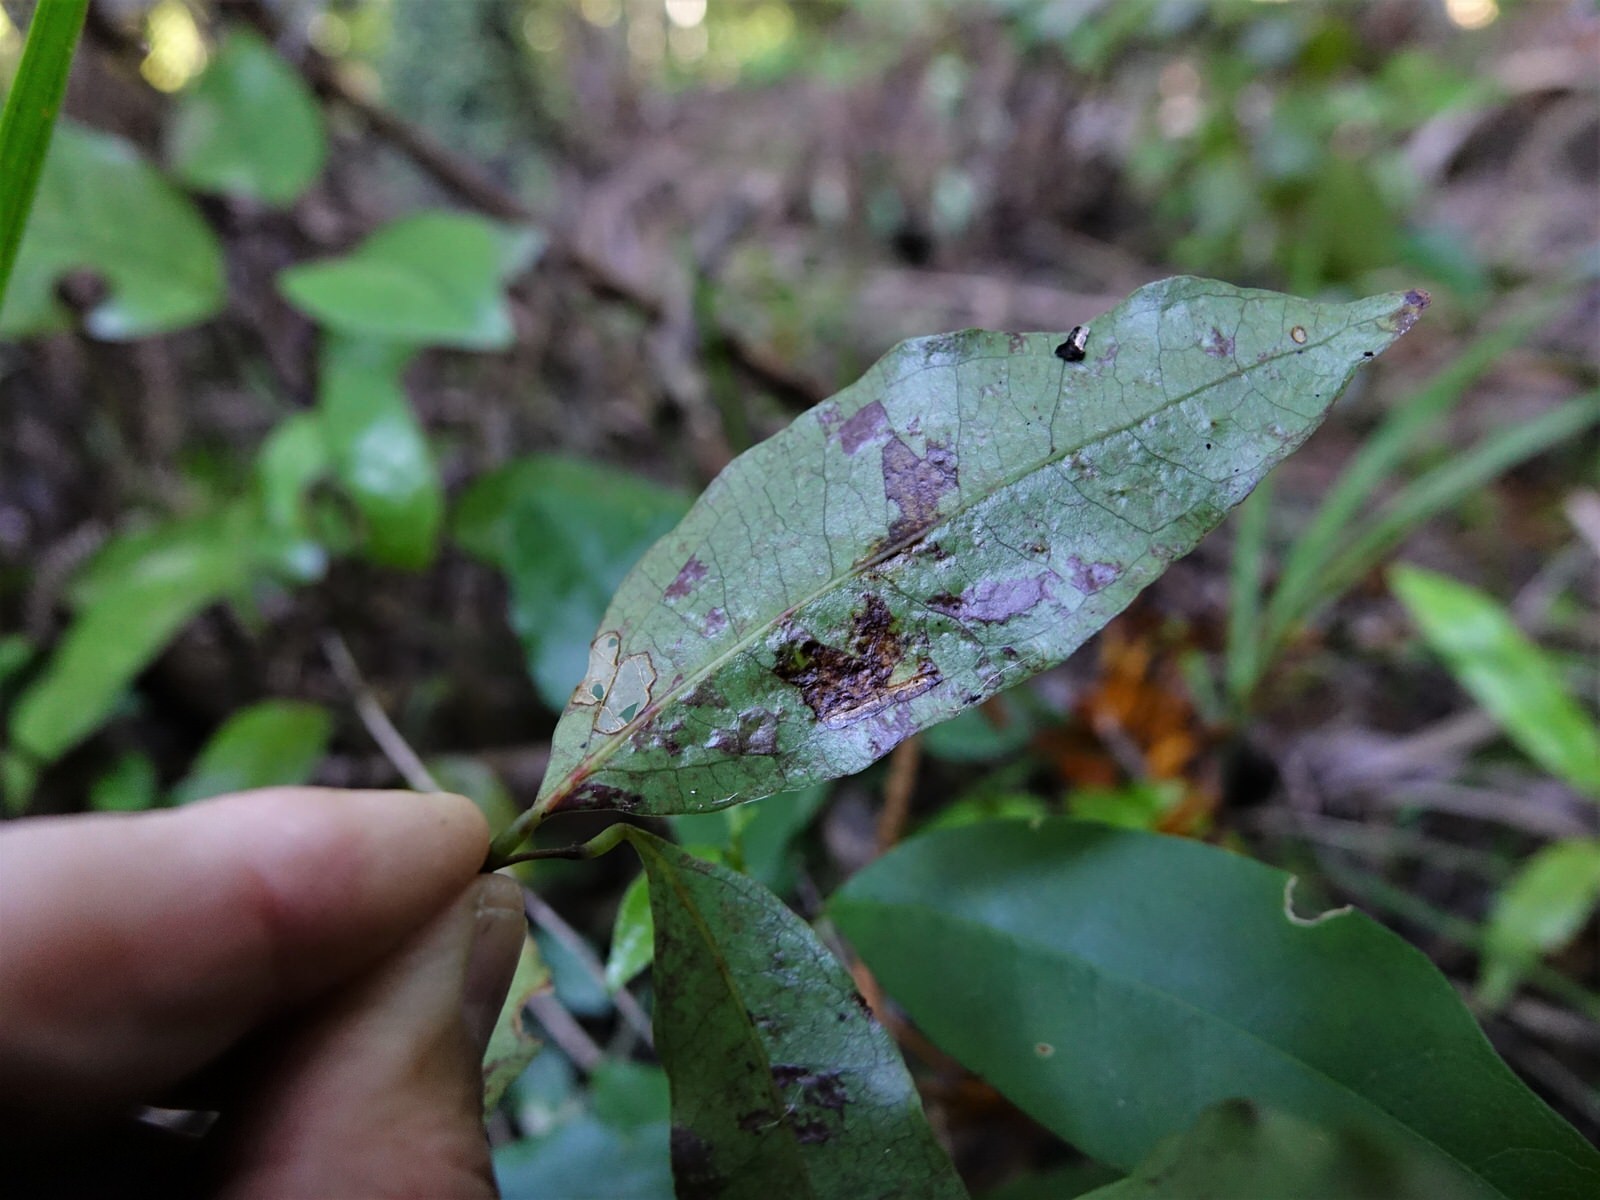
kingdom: Plantae
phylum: Tracheophyta
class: Magnoliopsida
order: Santalales
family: Nanodeaceae
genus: Mida
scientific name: Mida salicifolia
